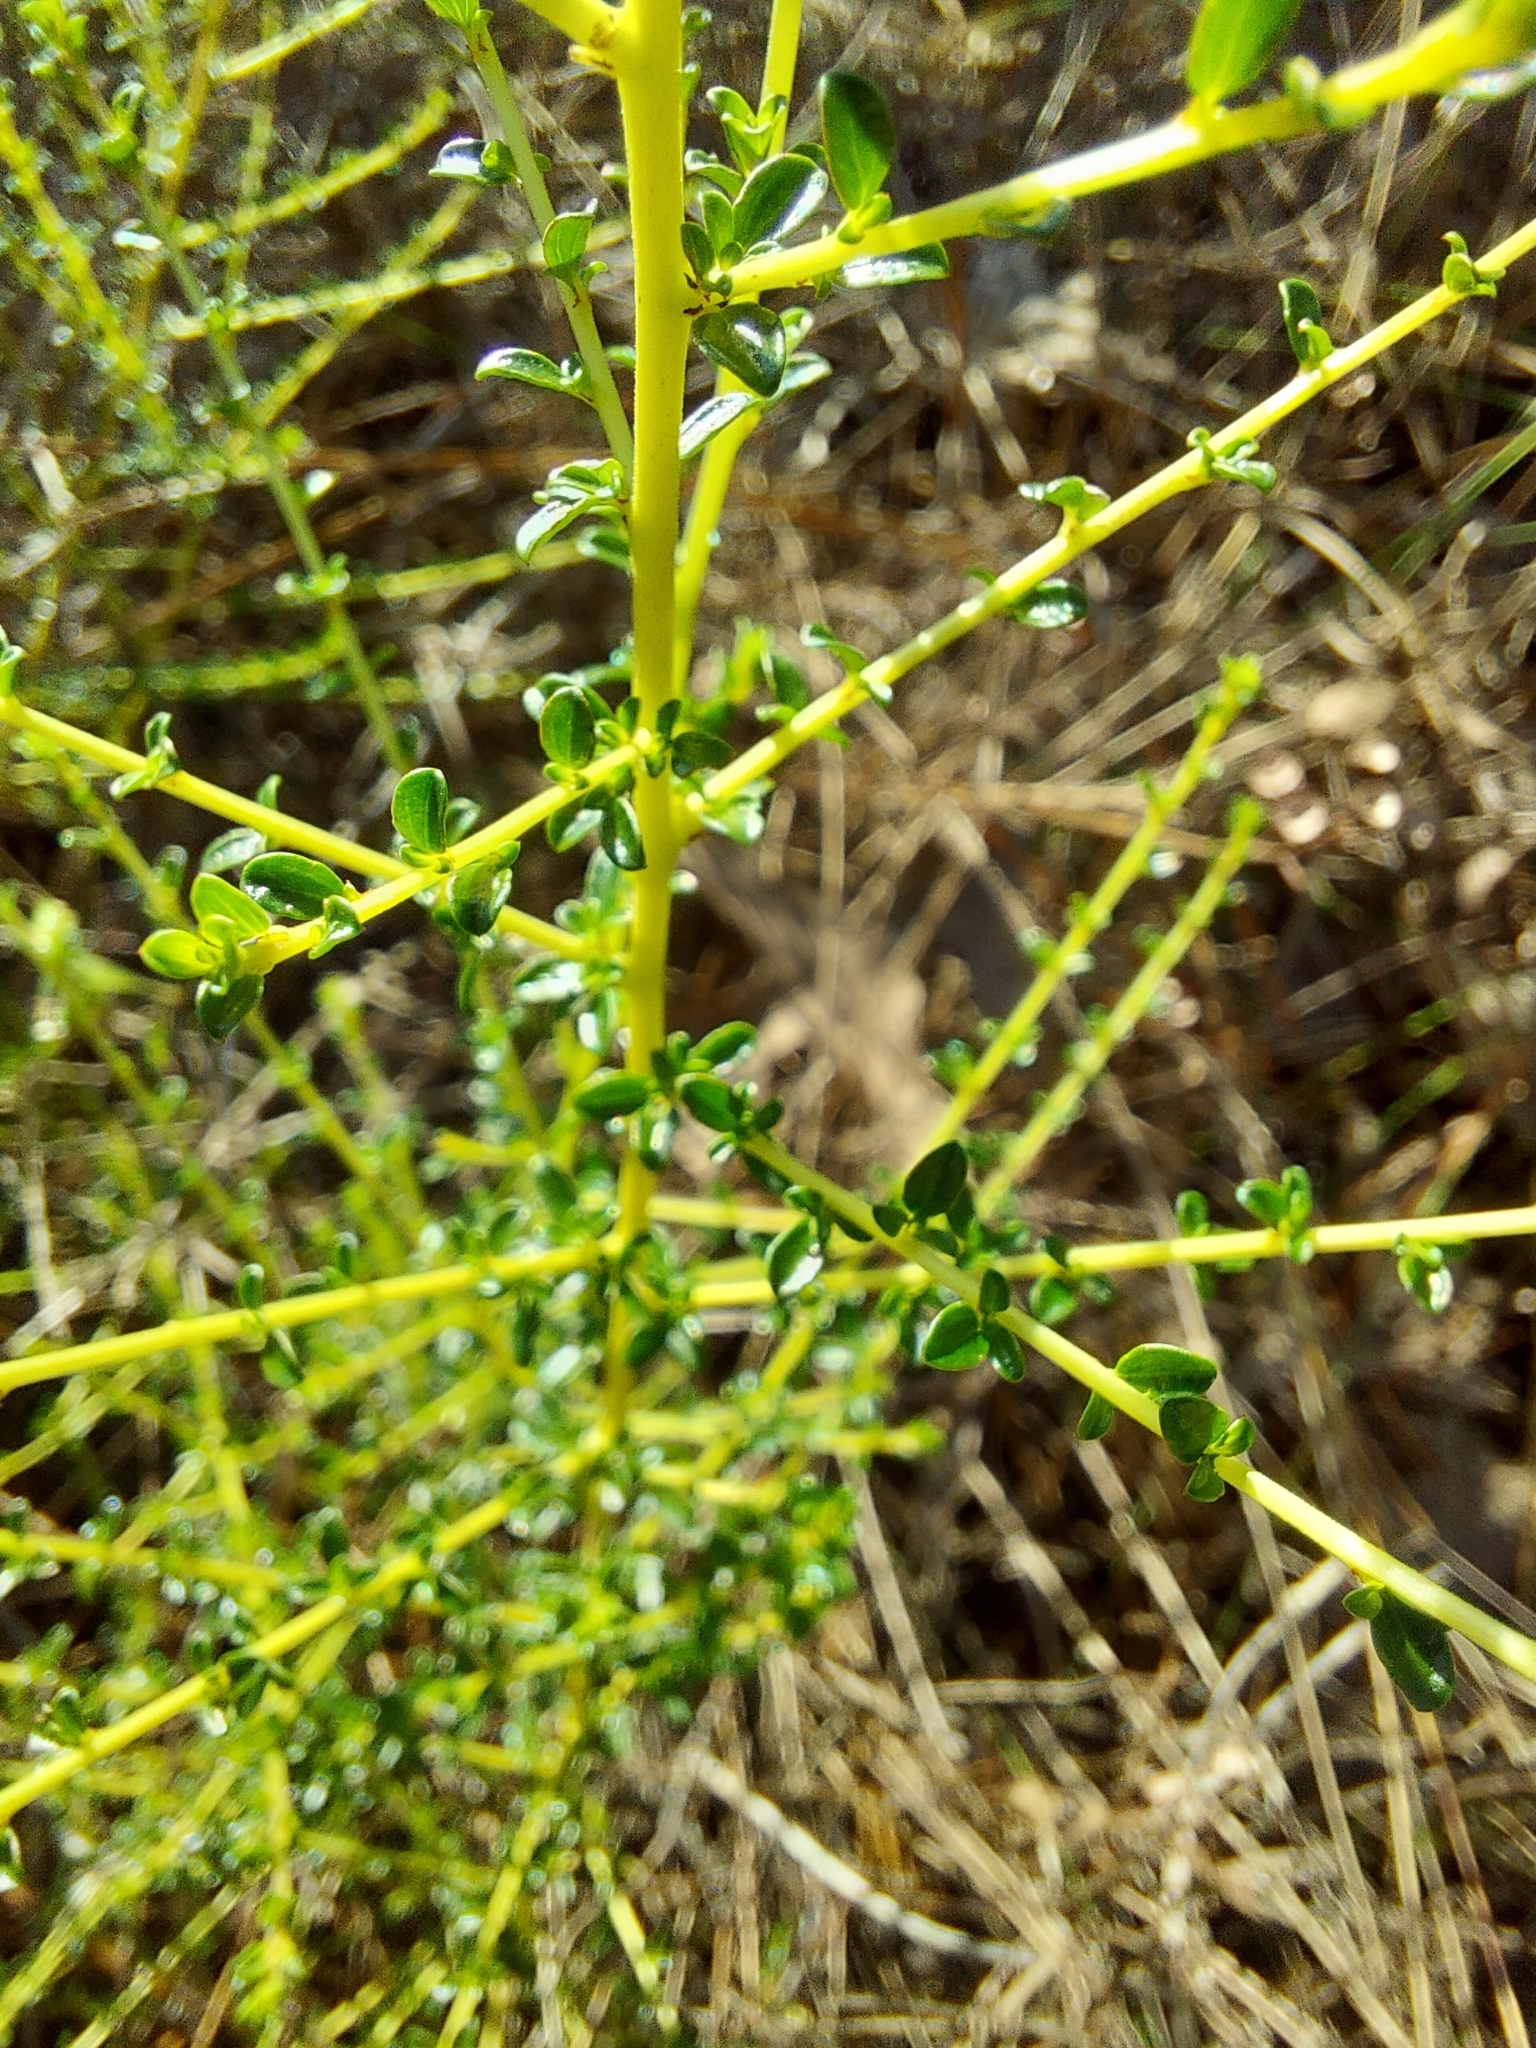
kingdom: Plantae
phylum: Tracheophyta
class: Magnoliopsida
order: Rosales
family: Rhamnaceae
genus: Ceanothus
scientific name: Ceanothus microphyllus
